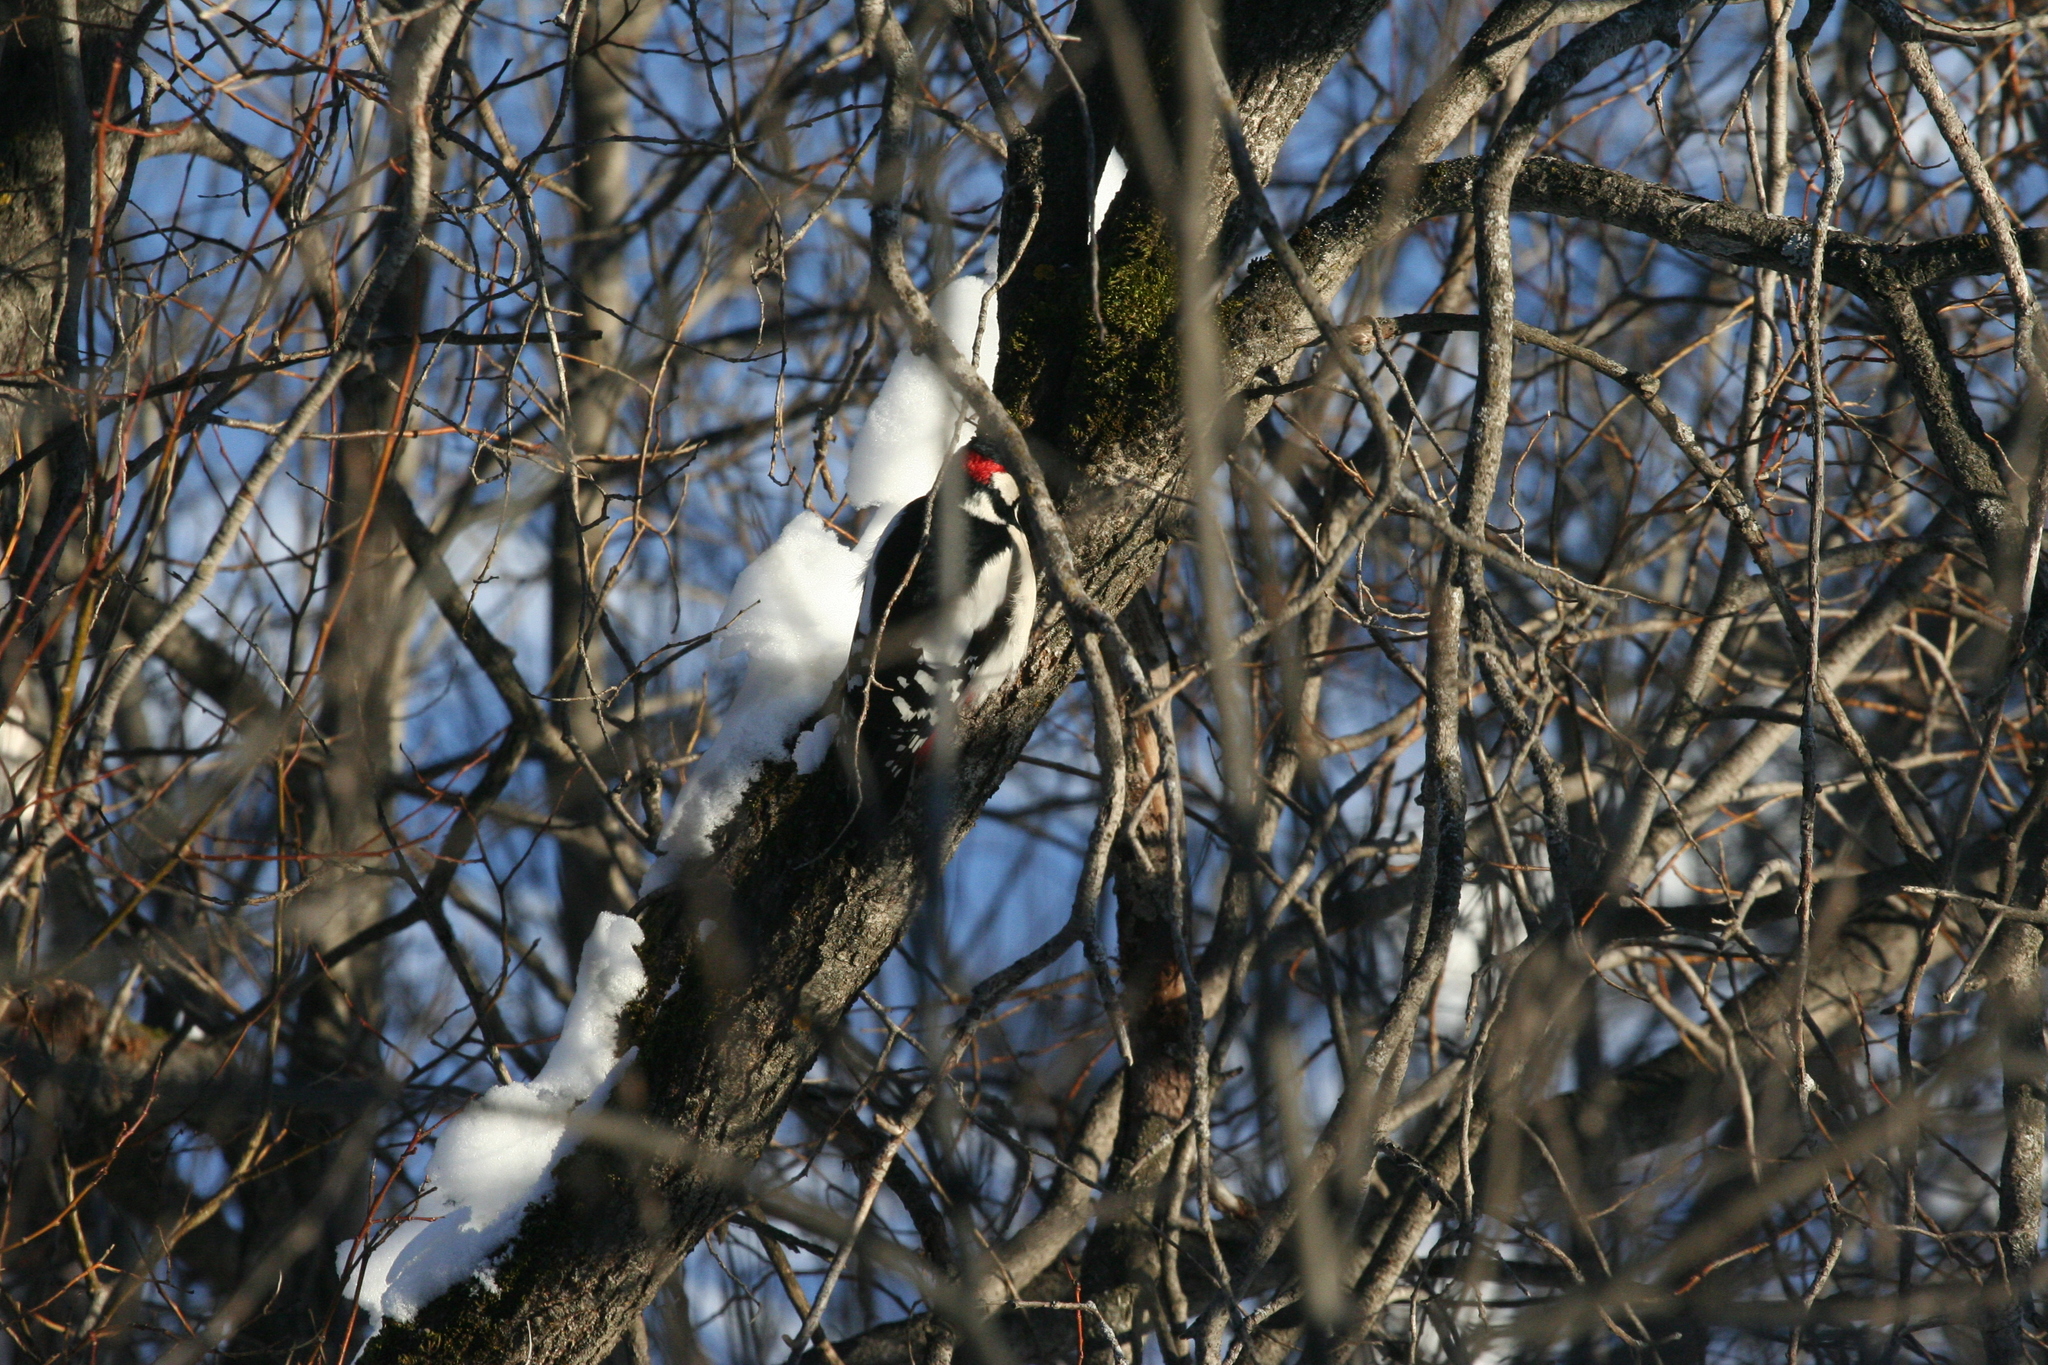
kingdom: Animalia
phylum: Chordata
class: Aves
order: Piciformes
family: Picidae
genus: Dendrocopos
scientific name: Dendrocopos major
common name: Great spotted woodpecker
